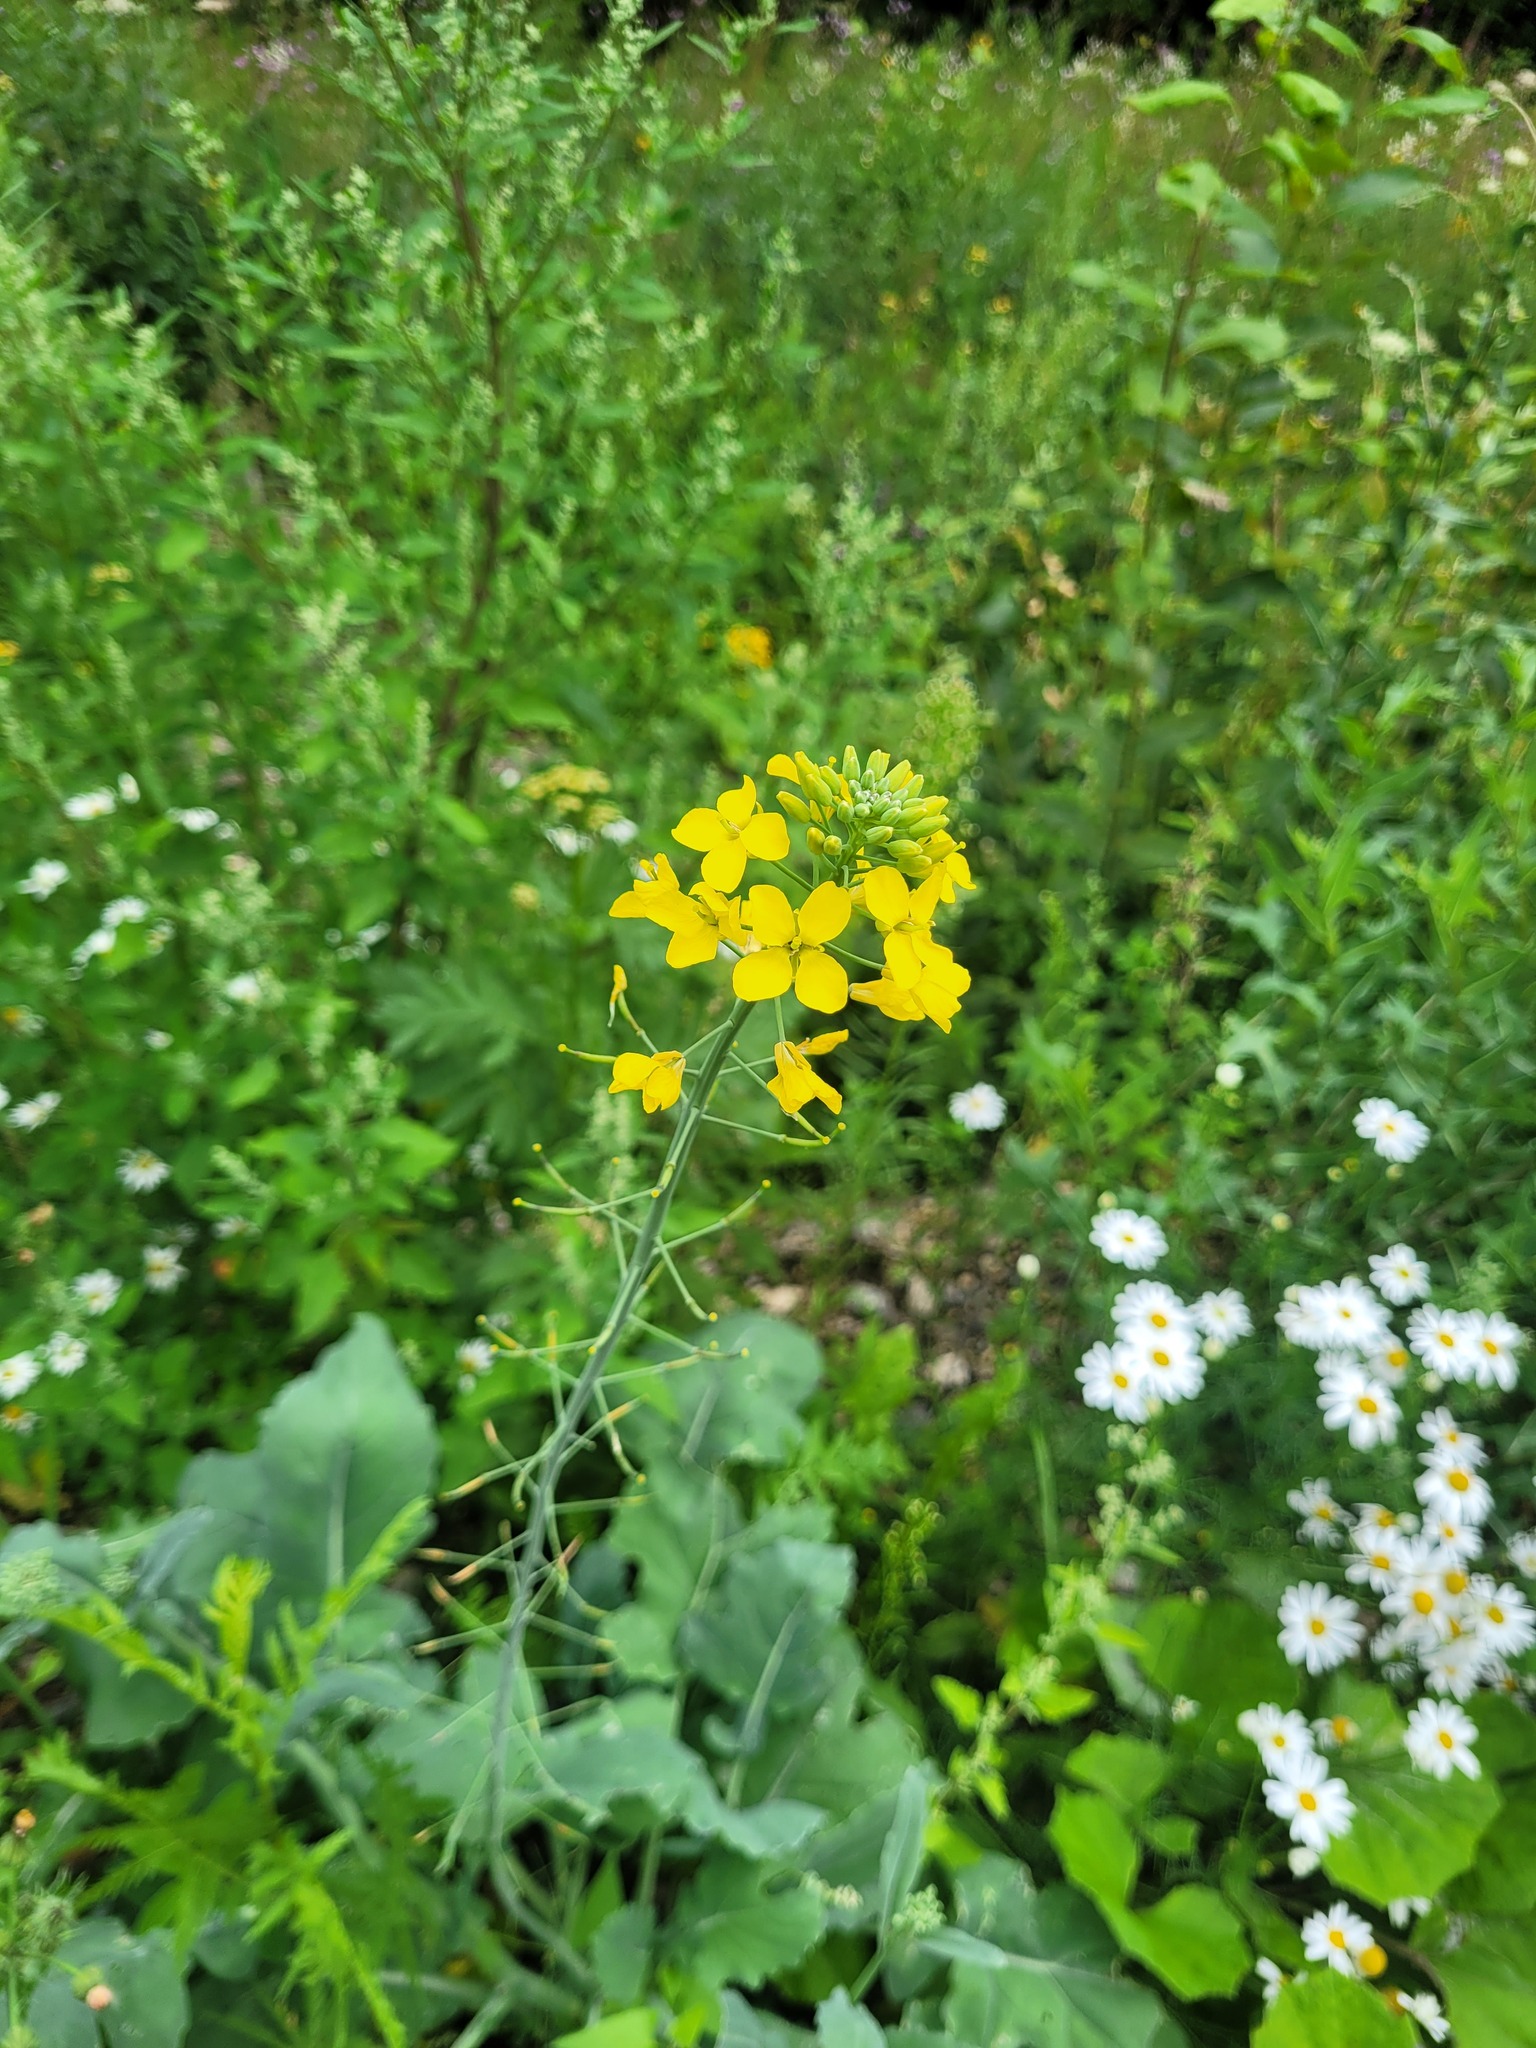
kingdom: Plantae
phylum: Tracheophyta
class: Magnoliopsida
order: Brassicales
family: Brassicaceae
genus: Brassica
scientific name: Brassica napus
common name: Rape
